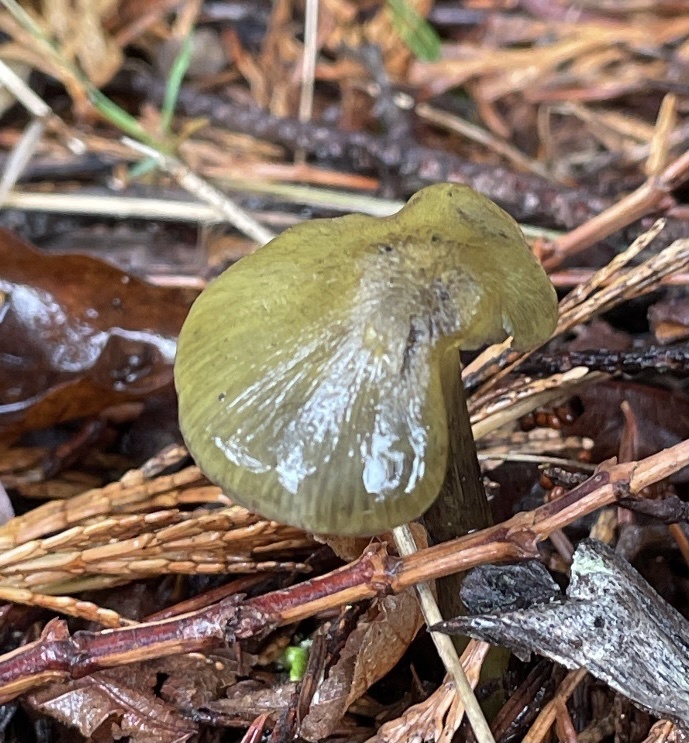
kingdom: Fungi
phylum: Basidiomycota
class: Agaricomycetes
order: Agaricales
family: Hygrophoraceae
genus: Gliophorus
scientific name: Gliophorus psittacinus
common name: Parrot wax-cap
